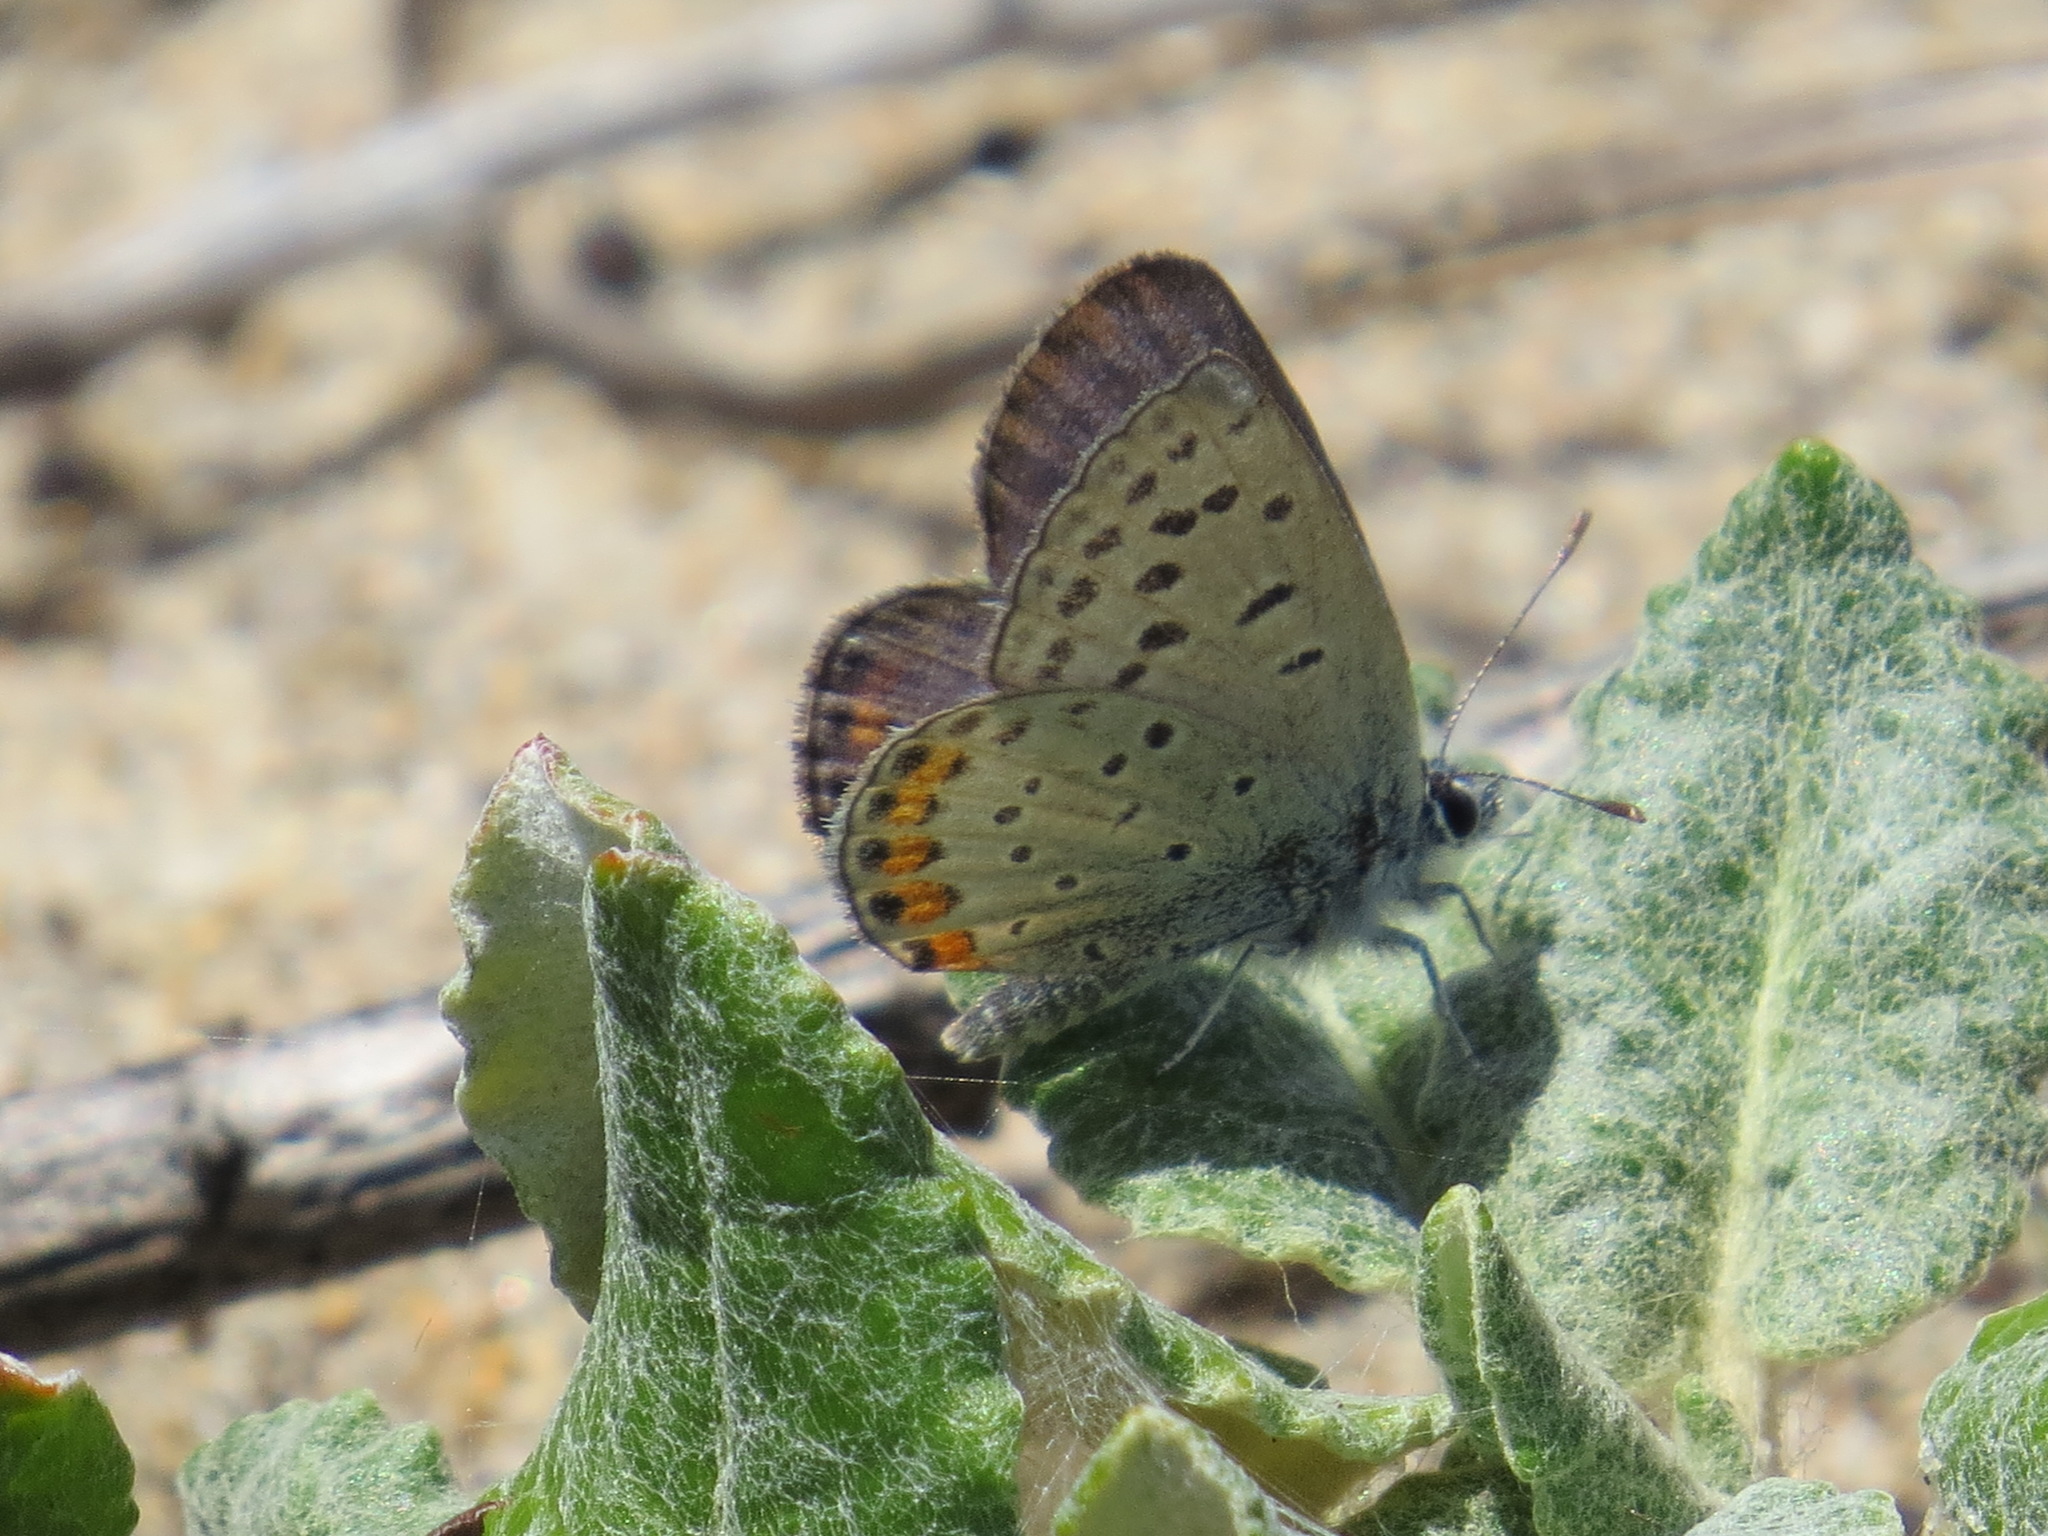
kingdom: Animalia
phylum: Arthropoda
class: Insecta
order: Lepidoptera
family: Lycaenidae
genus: Icaricia
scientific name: Icaricia acmon
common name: Acmon blue
